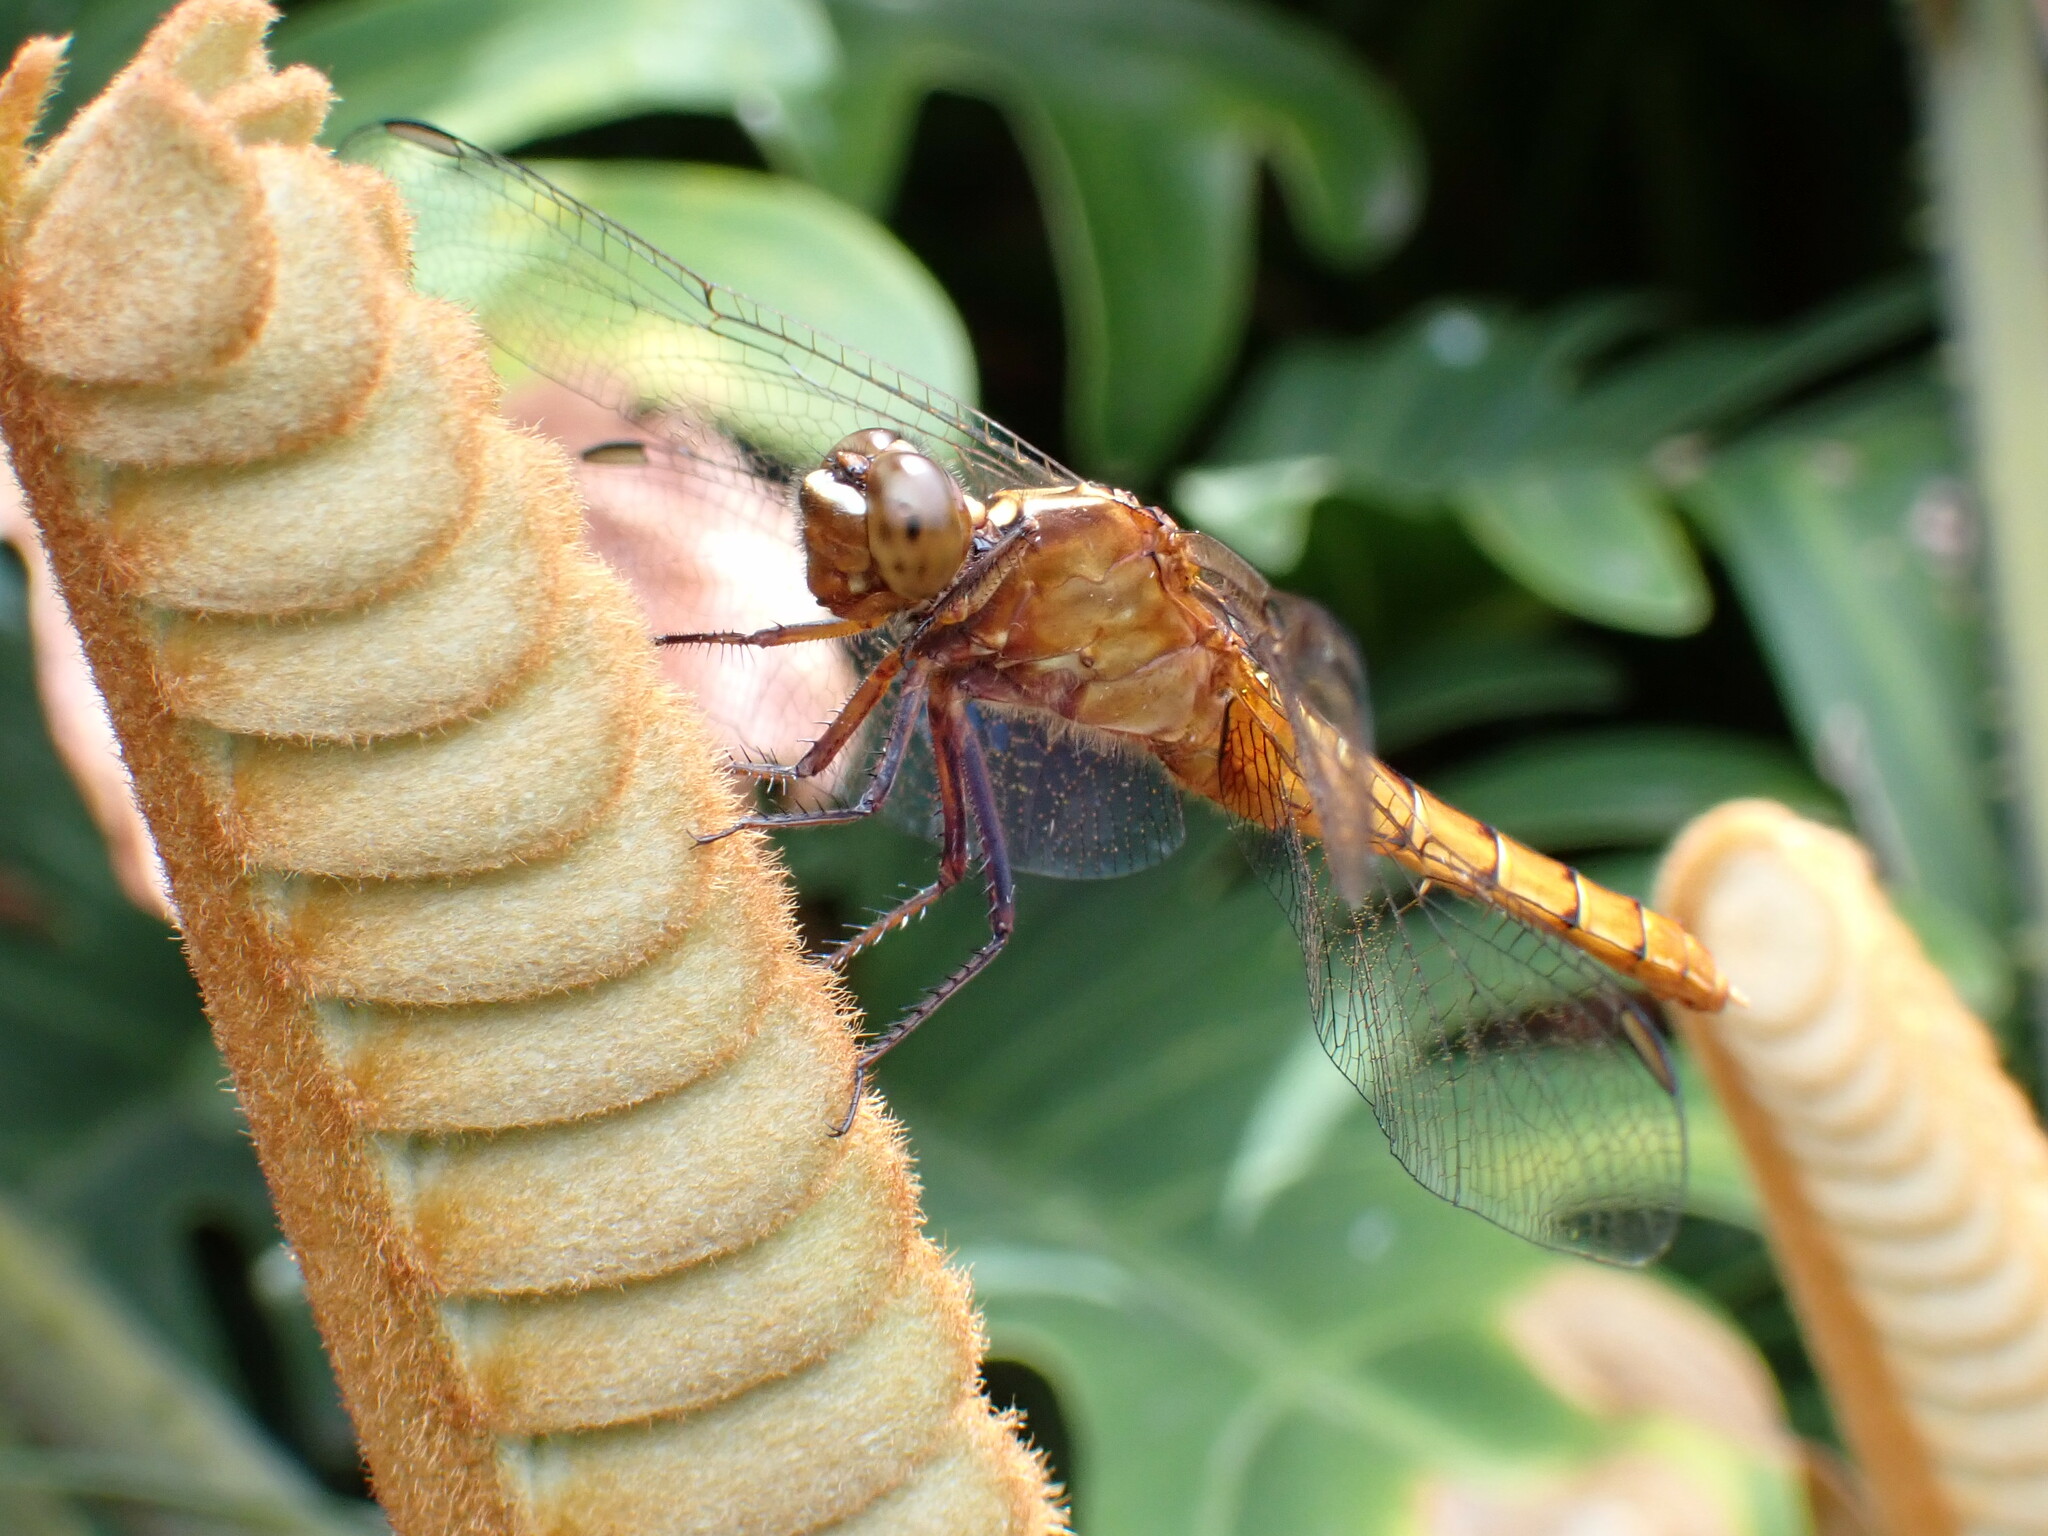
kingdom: Animalia
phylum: Arthropoda
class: Insecta
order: Odonata
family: Libellulidae
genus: Rhodothemis
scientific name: Rhodothemis lieftincki
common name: Red arrow
